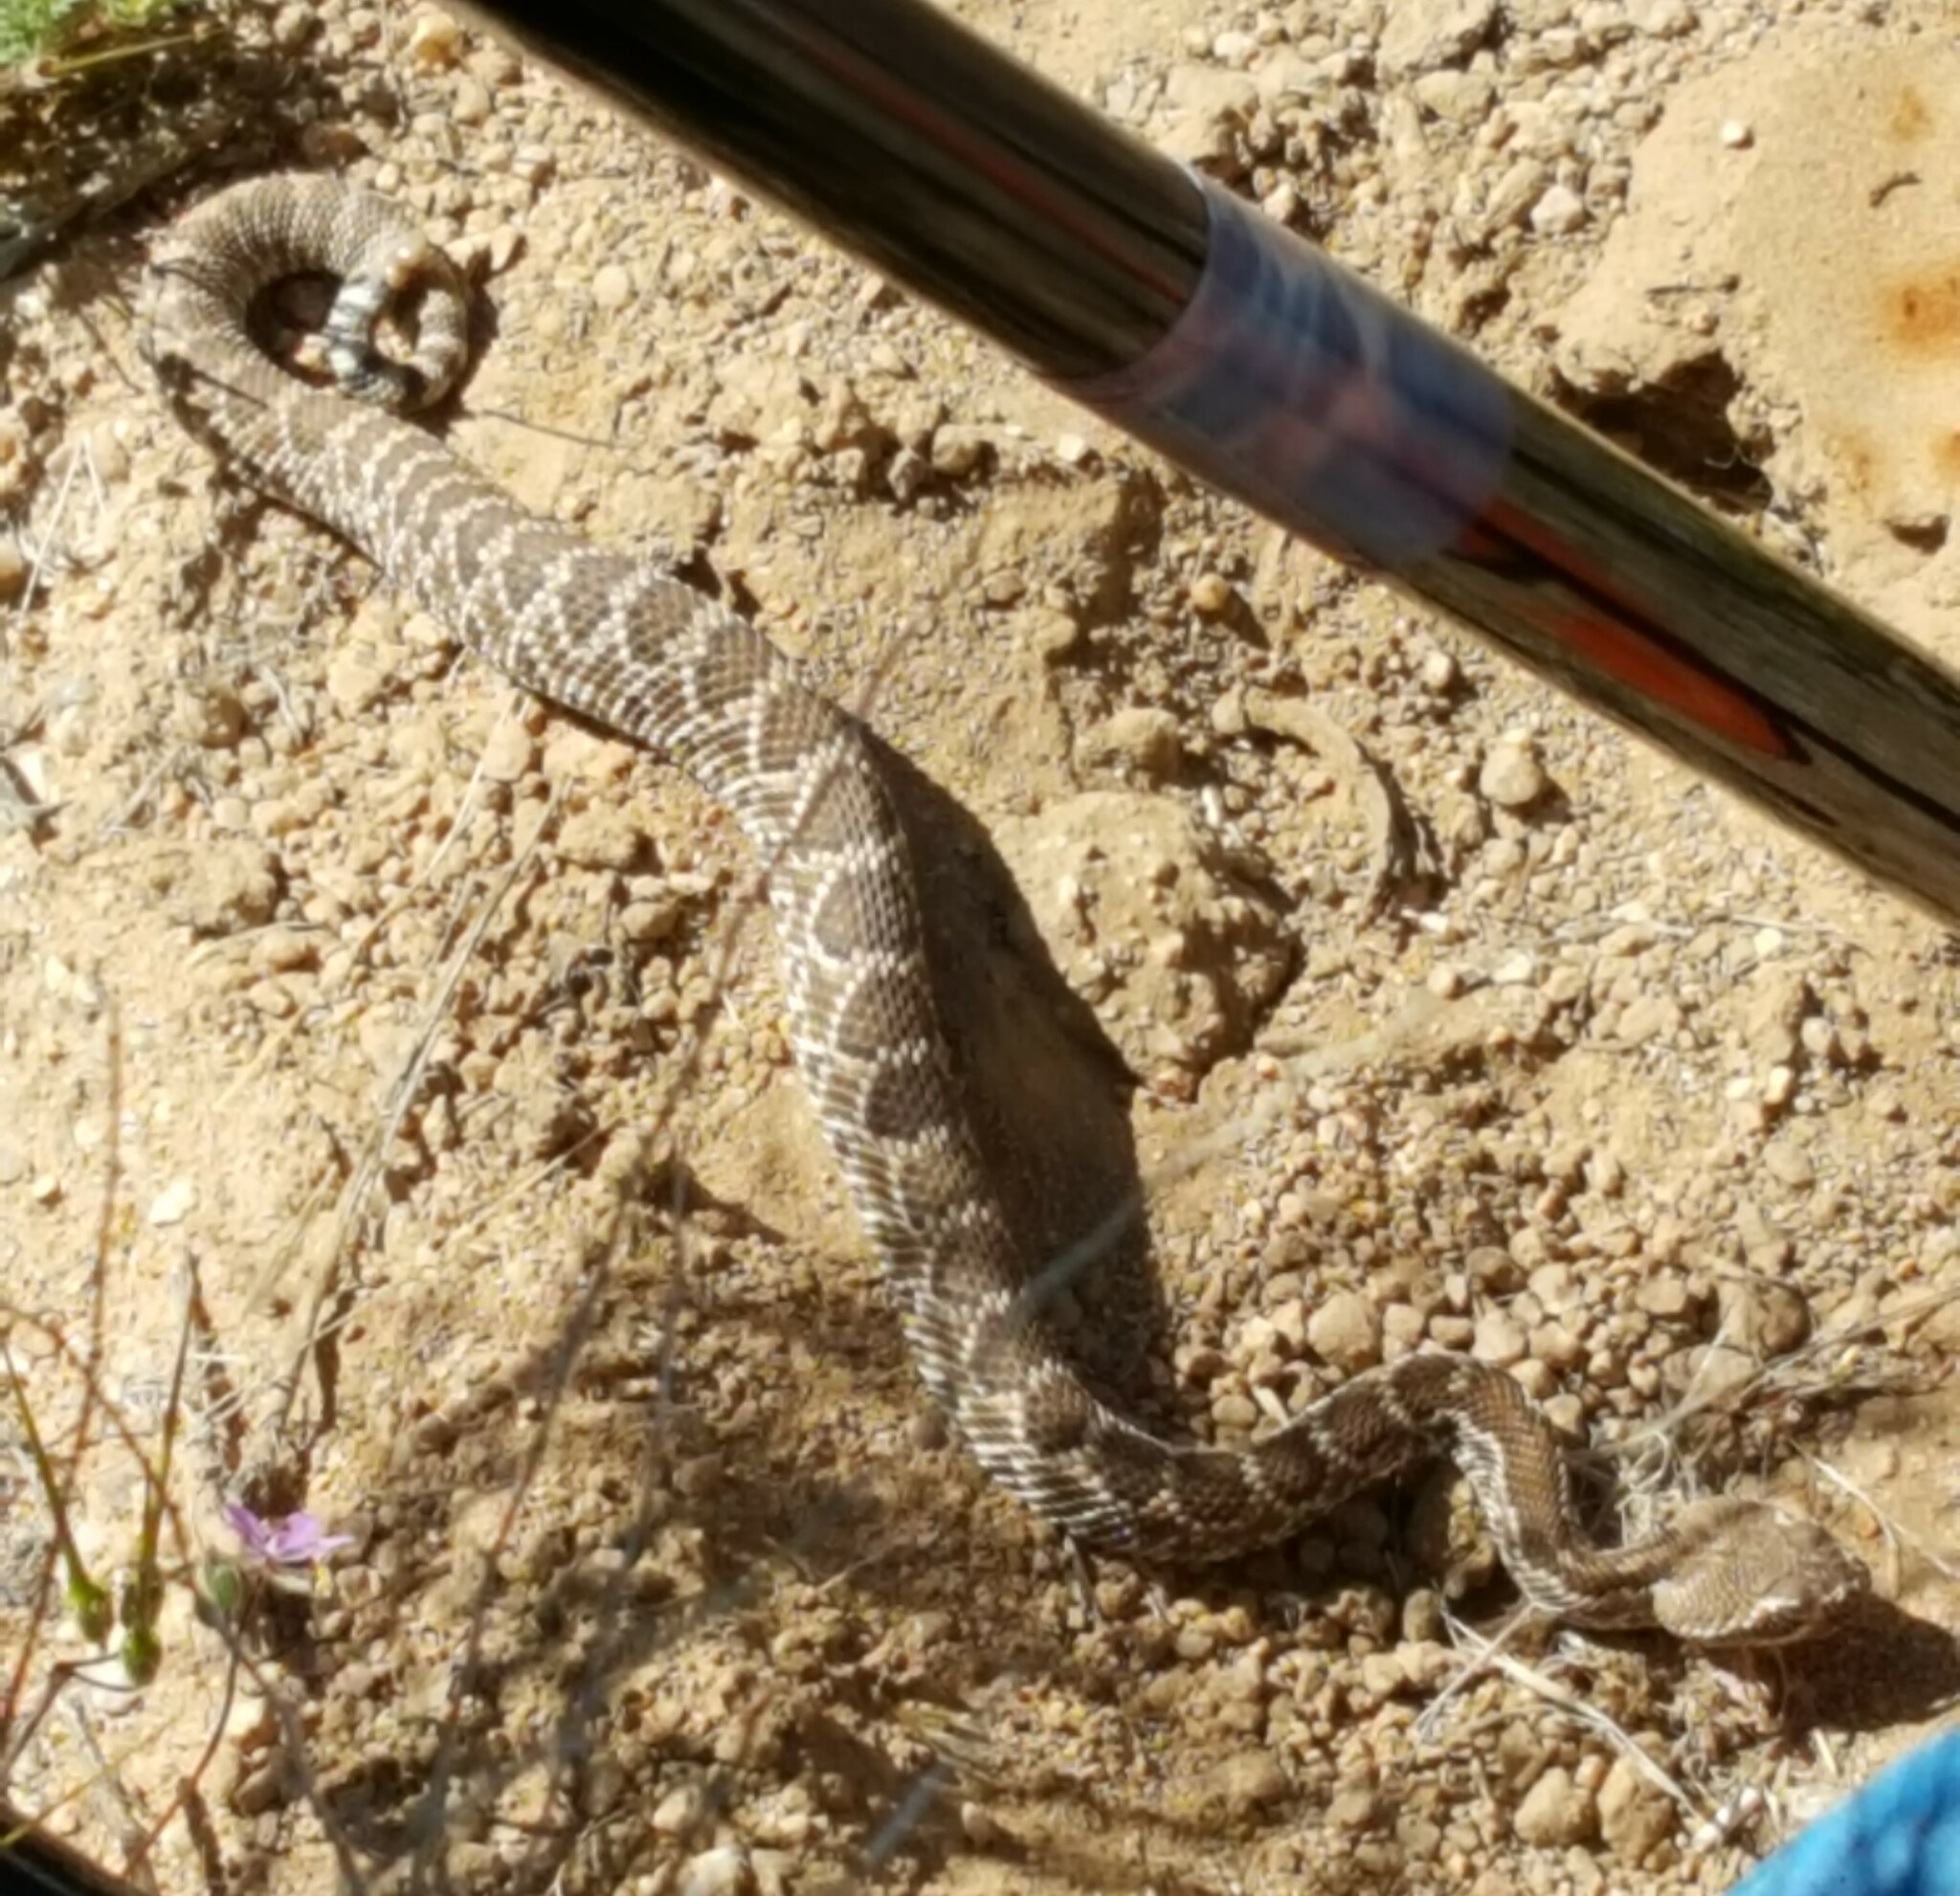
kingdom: Animalia
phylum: Chordata
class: Squamata
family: Viperidae
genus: Crotalus
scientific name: Crotalus scutulatus
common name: Scutulatus
